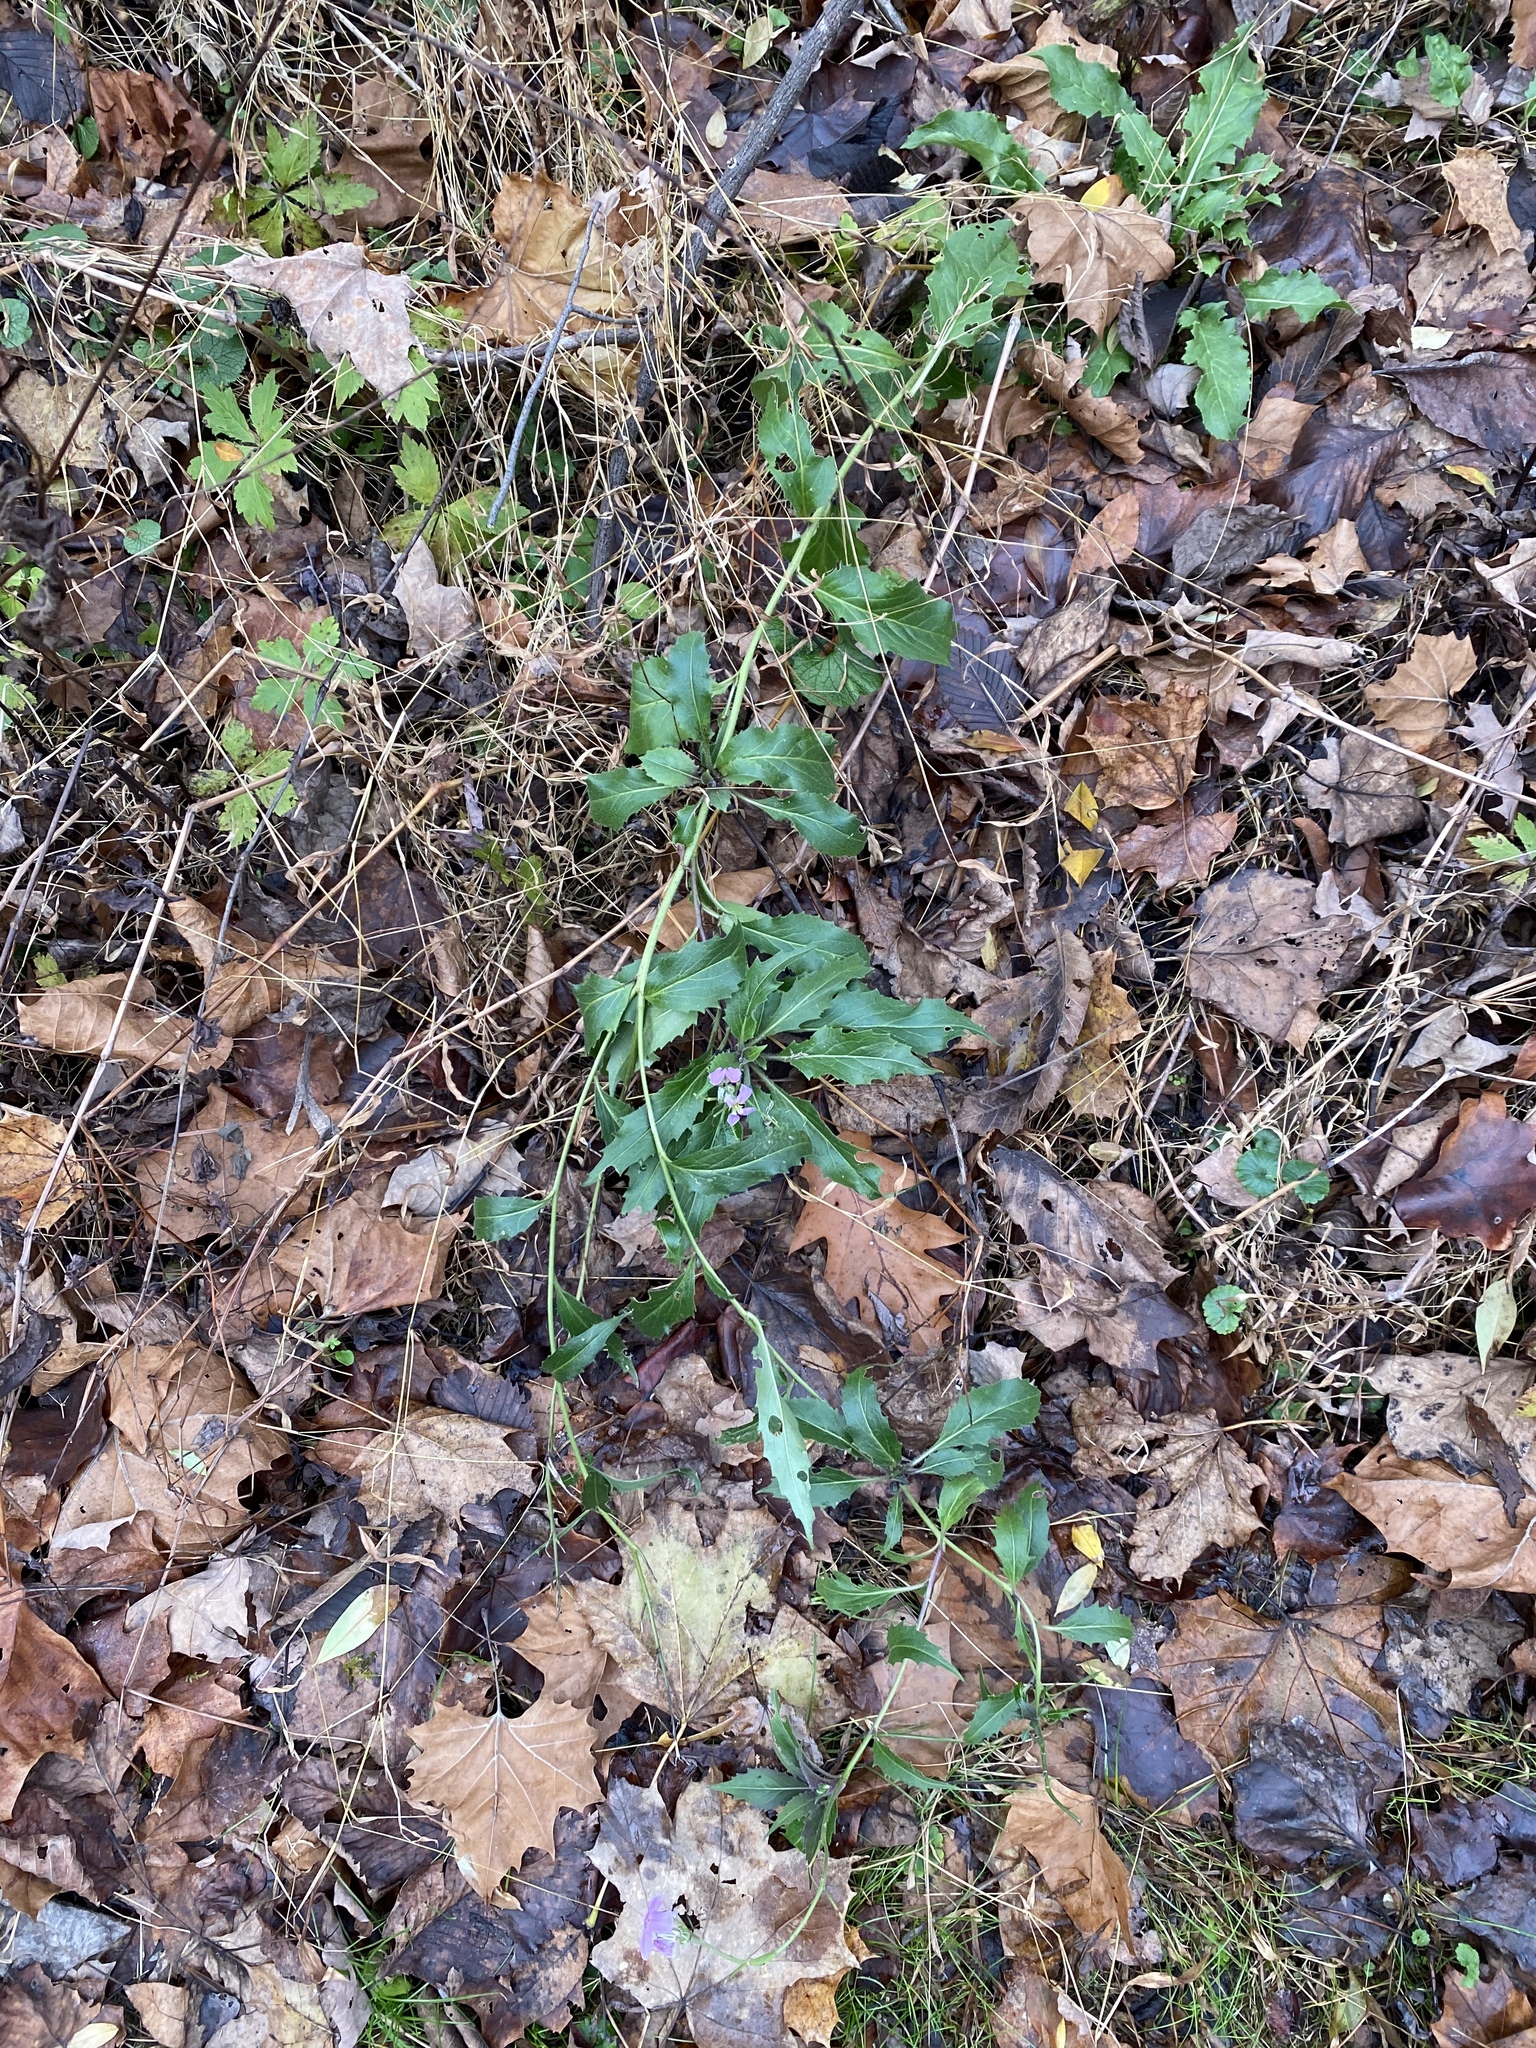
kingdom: Plantae
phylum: Tracheophyta
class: Magnoliopsida
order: Brassicales
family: Brassicaceae
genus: Hesperis
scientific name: Hesperis matronalis
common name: Dame's-violet
